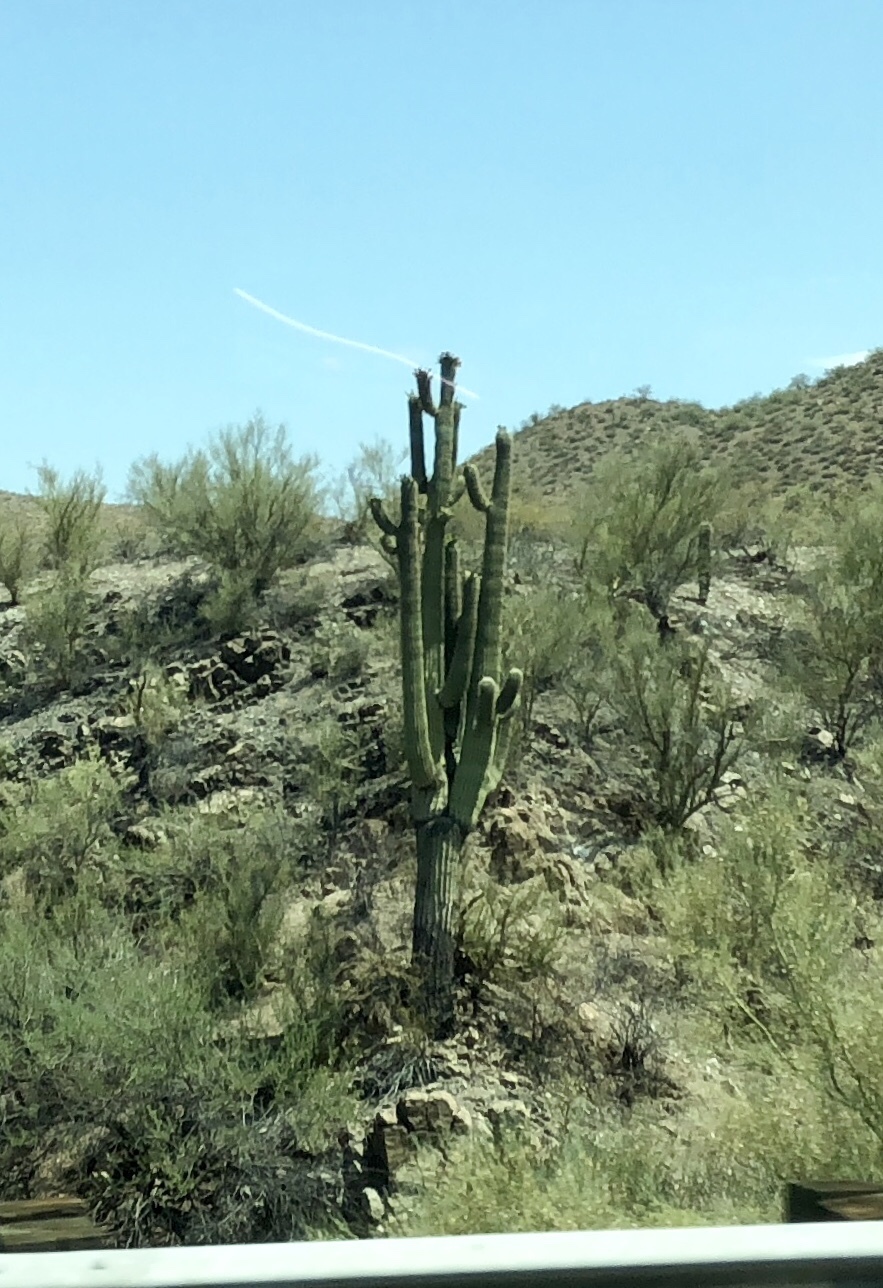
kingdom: Plantae
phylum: Tracheophyta
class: Magnoliopsida
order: Caryophyllales
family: Cactaceae
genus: Carnegiea
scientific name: Carnegiea gigantea
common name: Saguaro
